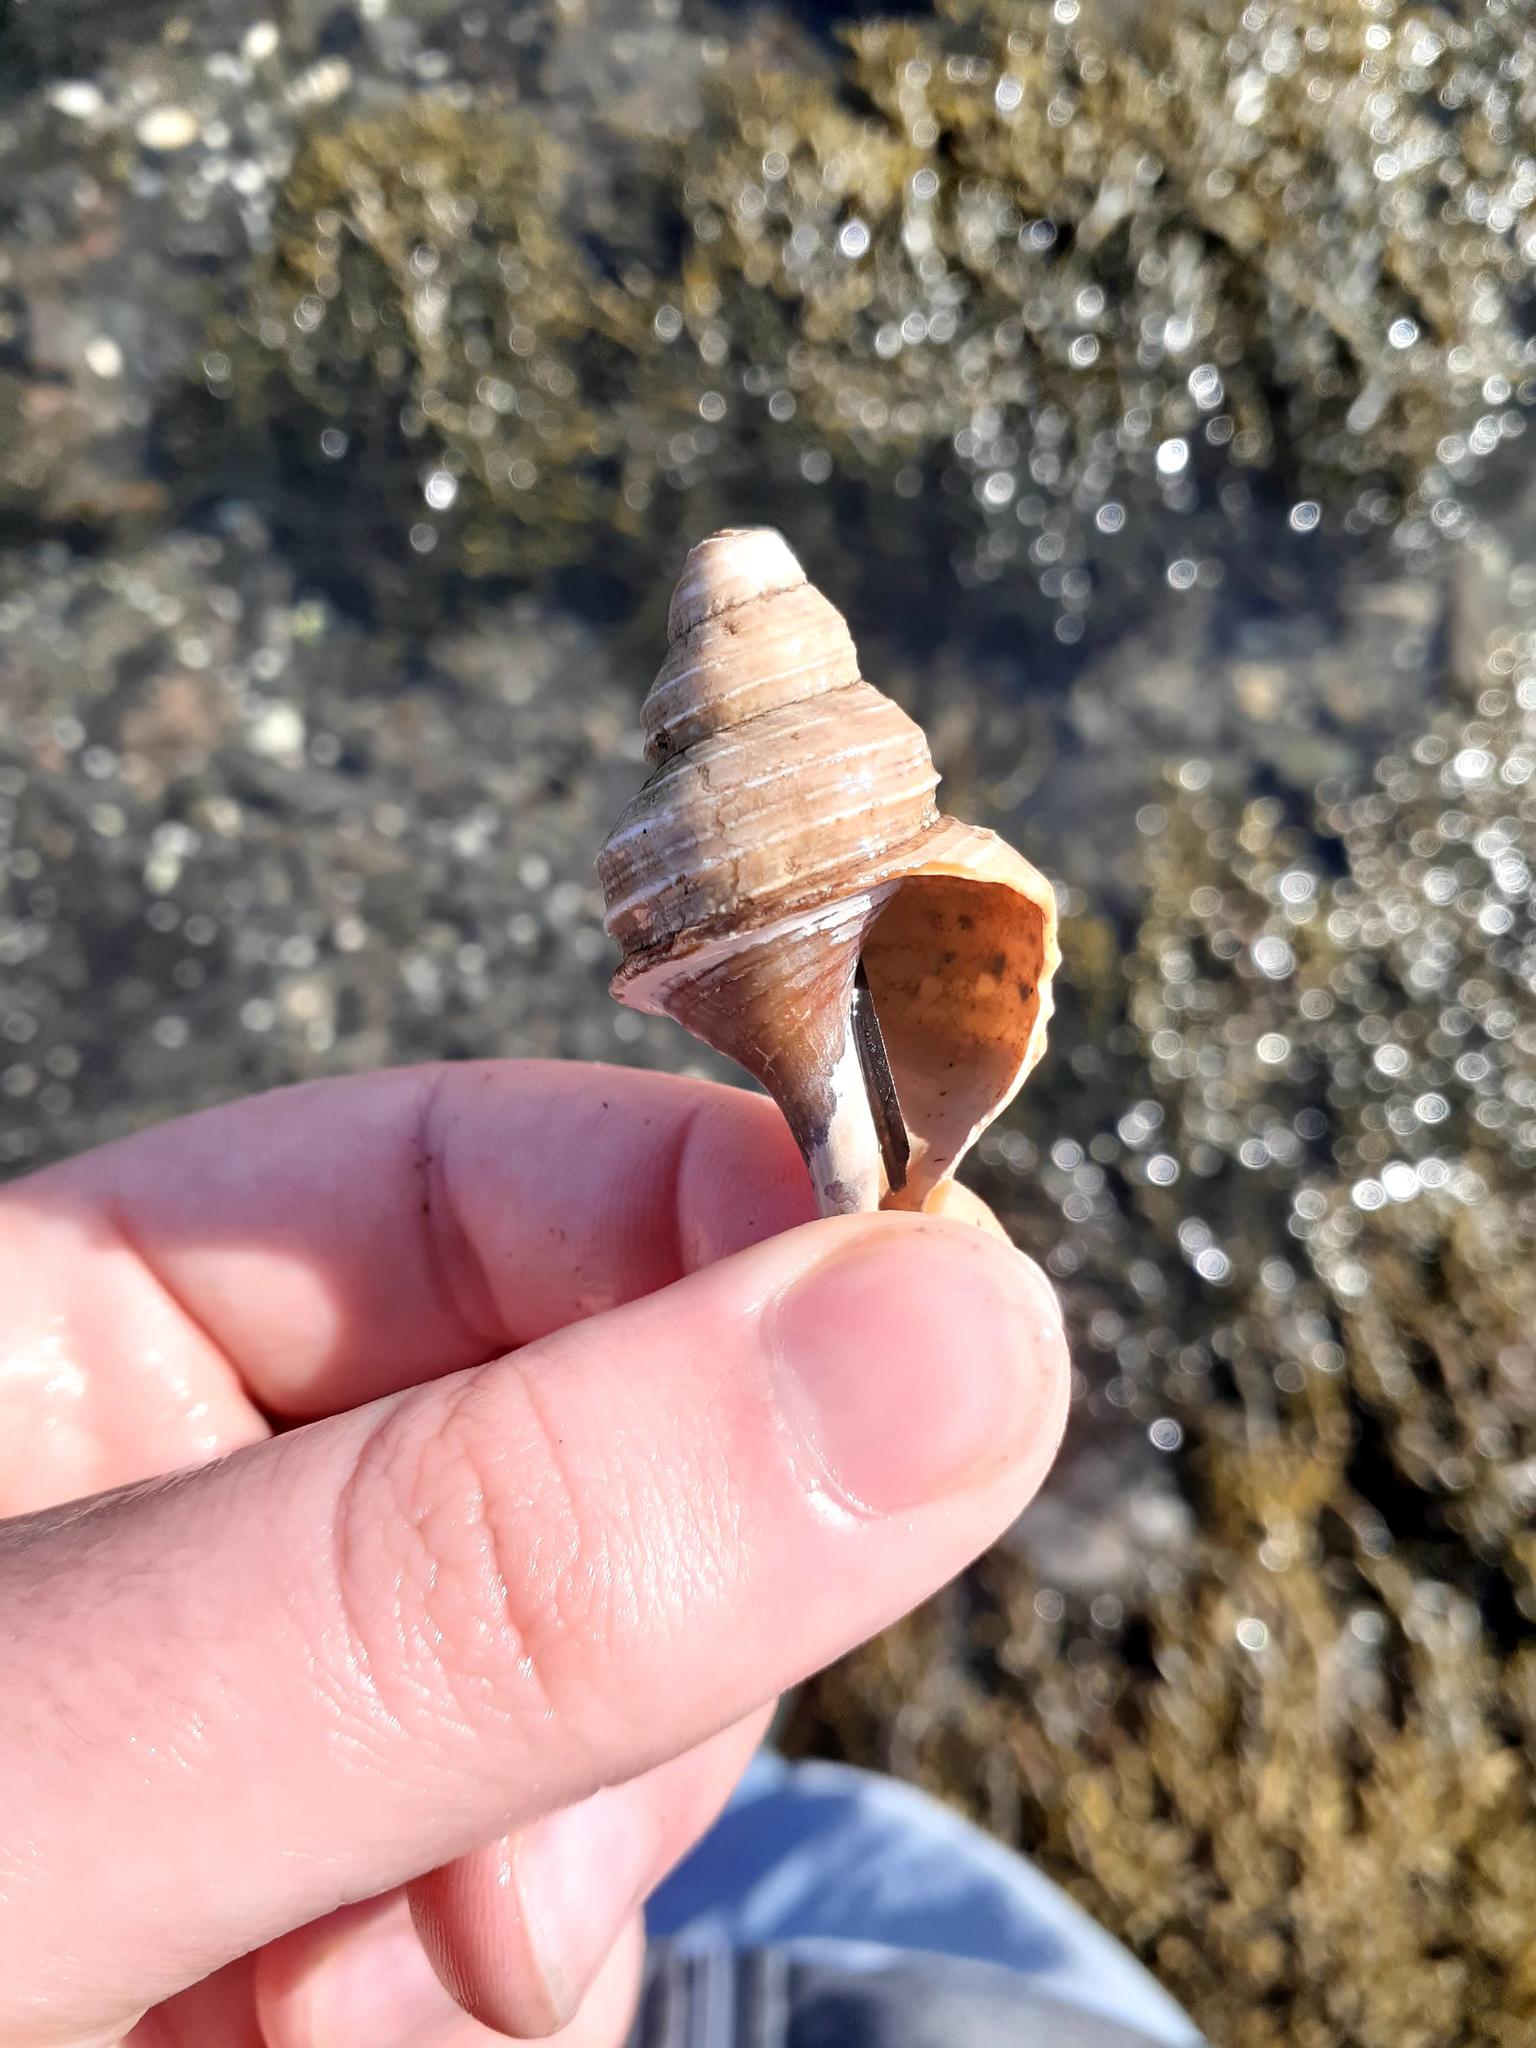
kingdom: Animalia
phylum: Mollusca
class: Gastropoda
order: Neogastropoda
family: Buccinidae
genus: Neptunea
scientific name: Neptunea despecta
